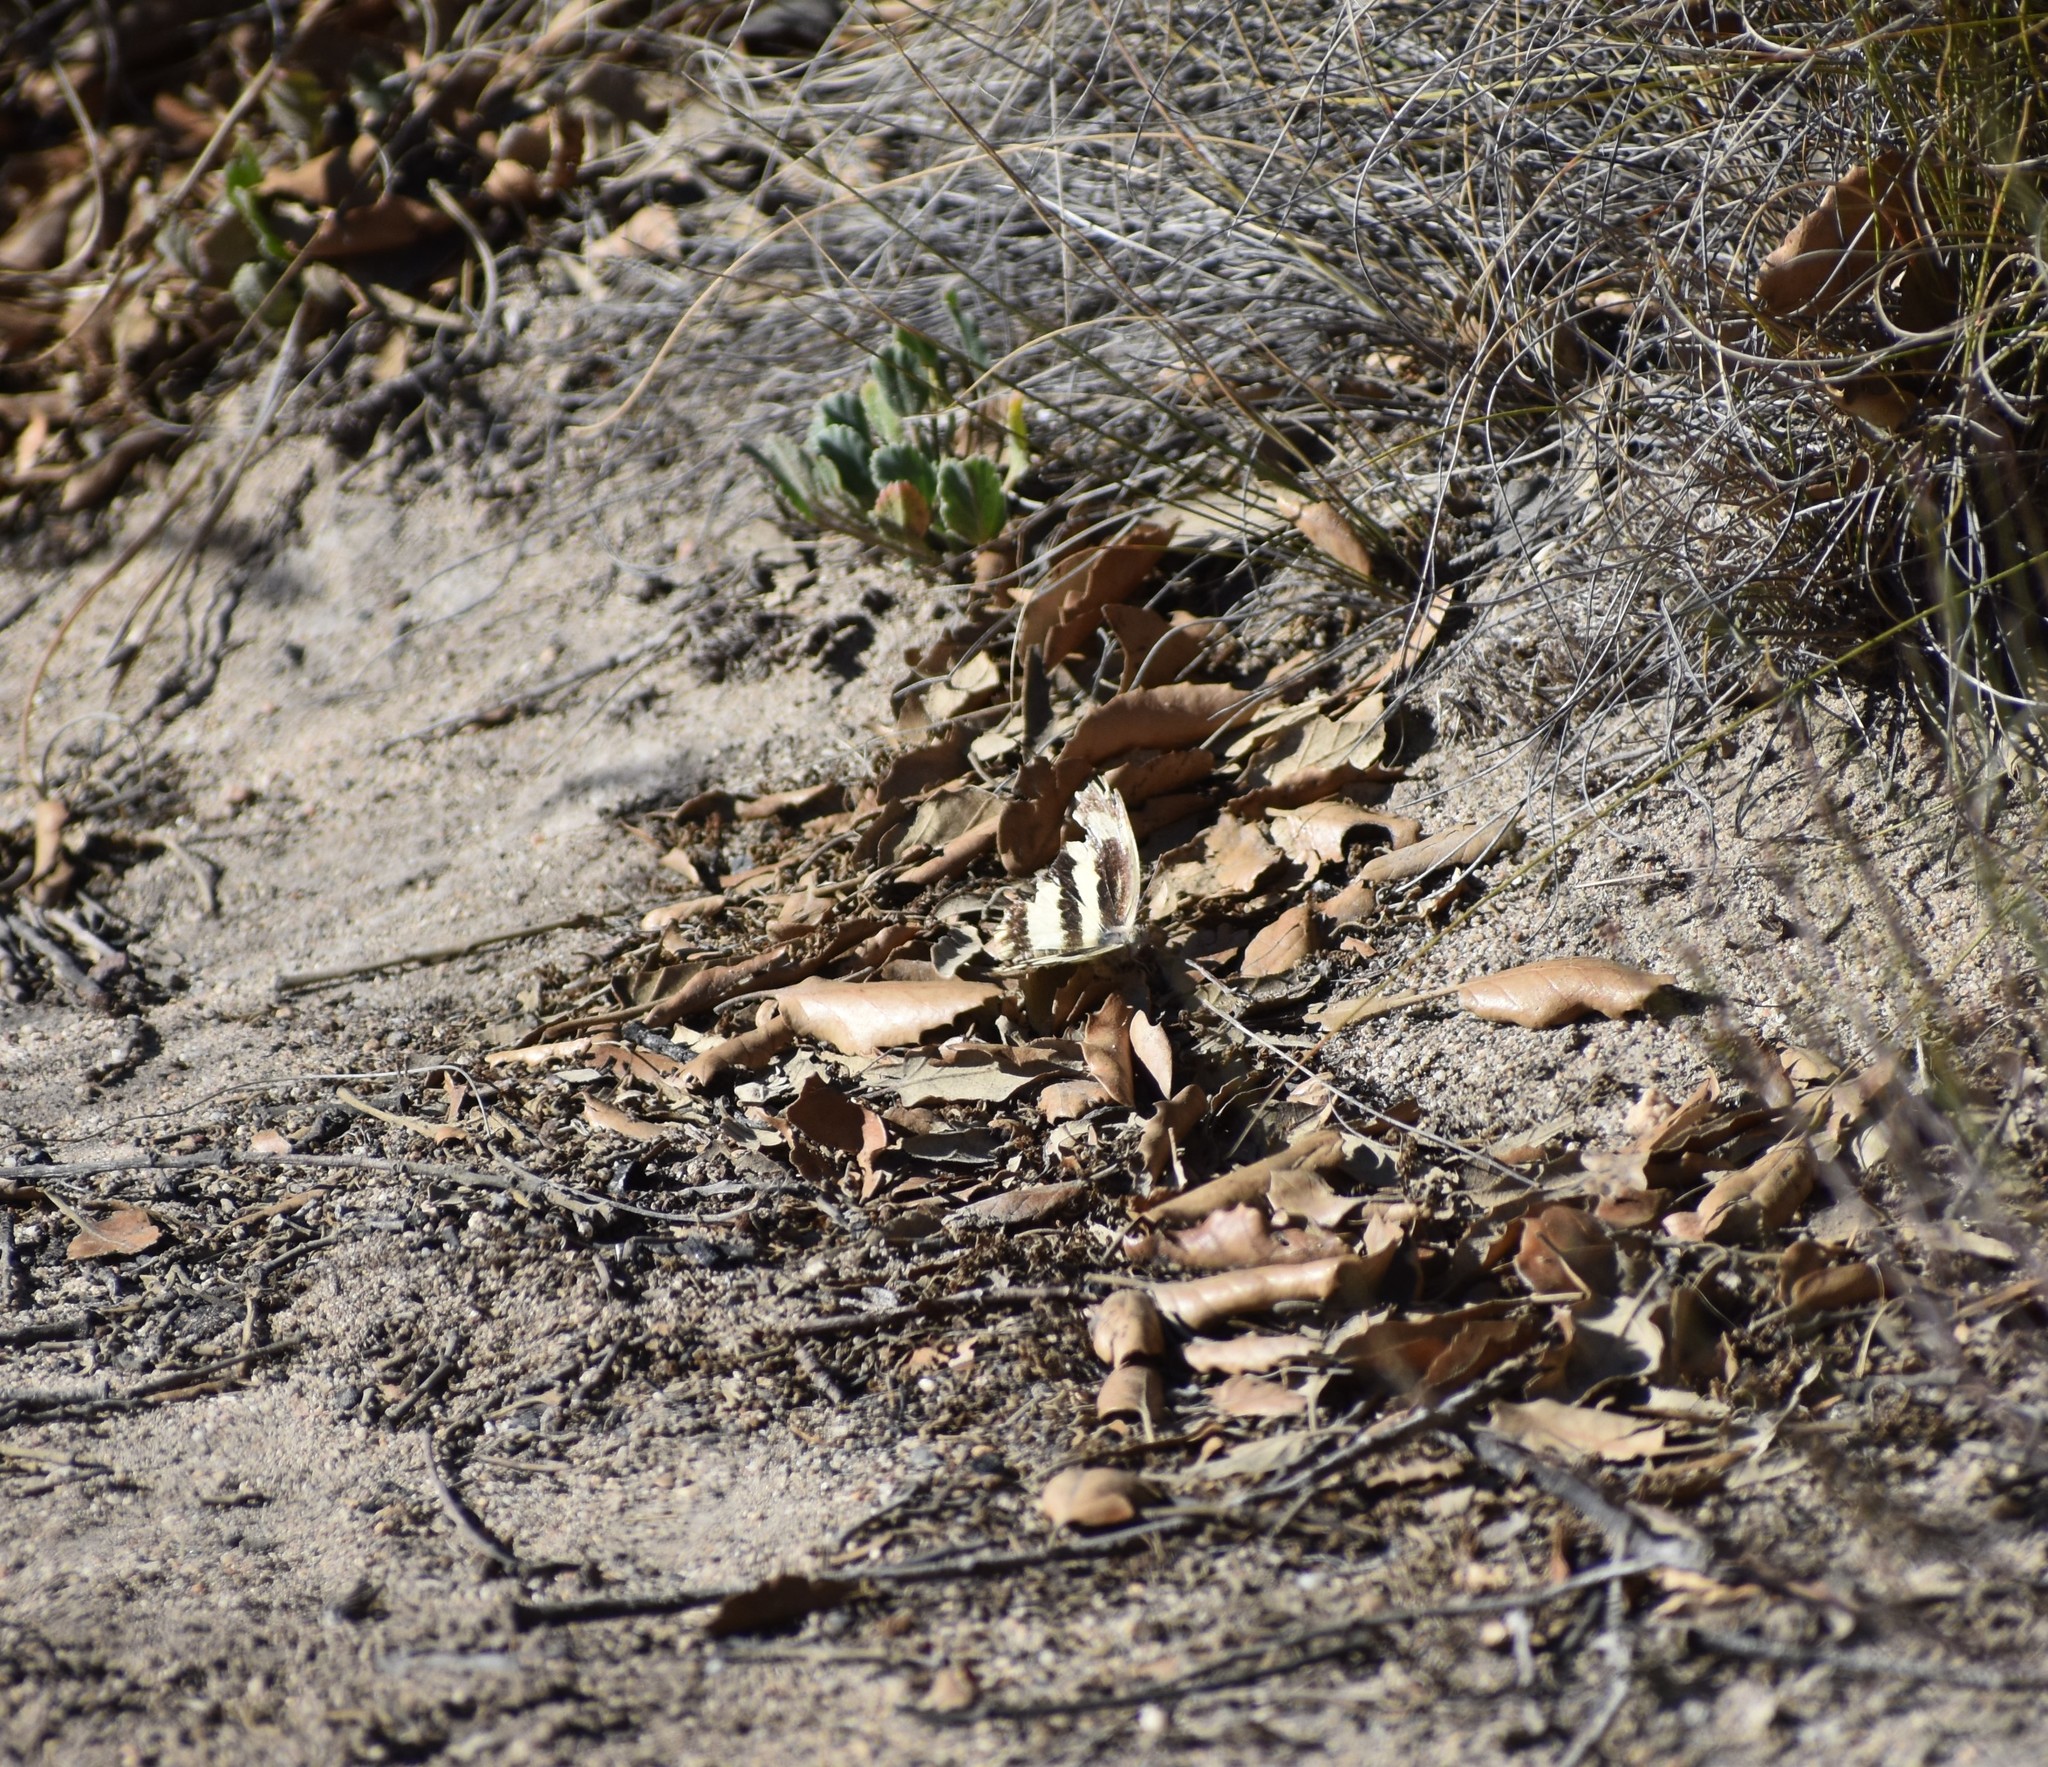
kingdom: Animalia
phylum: Arthropoda
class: Insecta
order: Lepidoptera
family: Pieridae
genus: Pinacopteryx
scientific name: Pinacopteryx eriphia
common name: Zebra white
